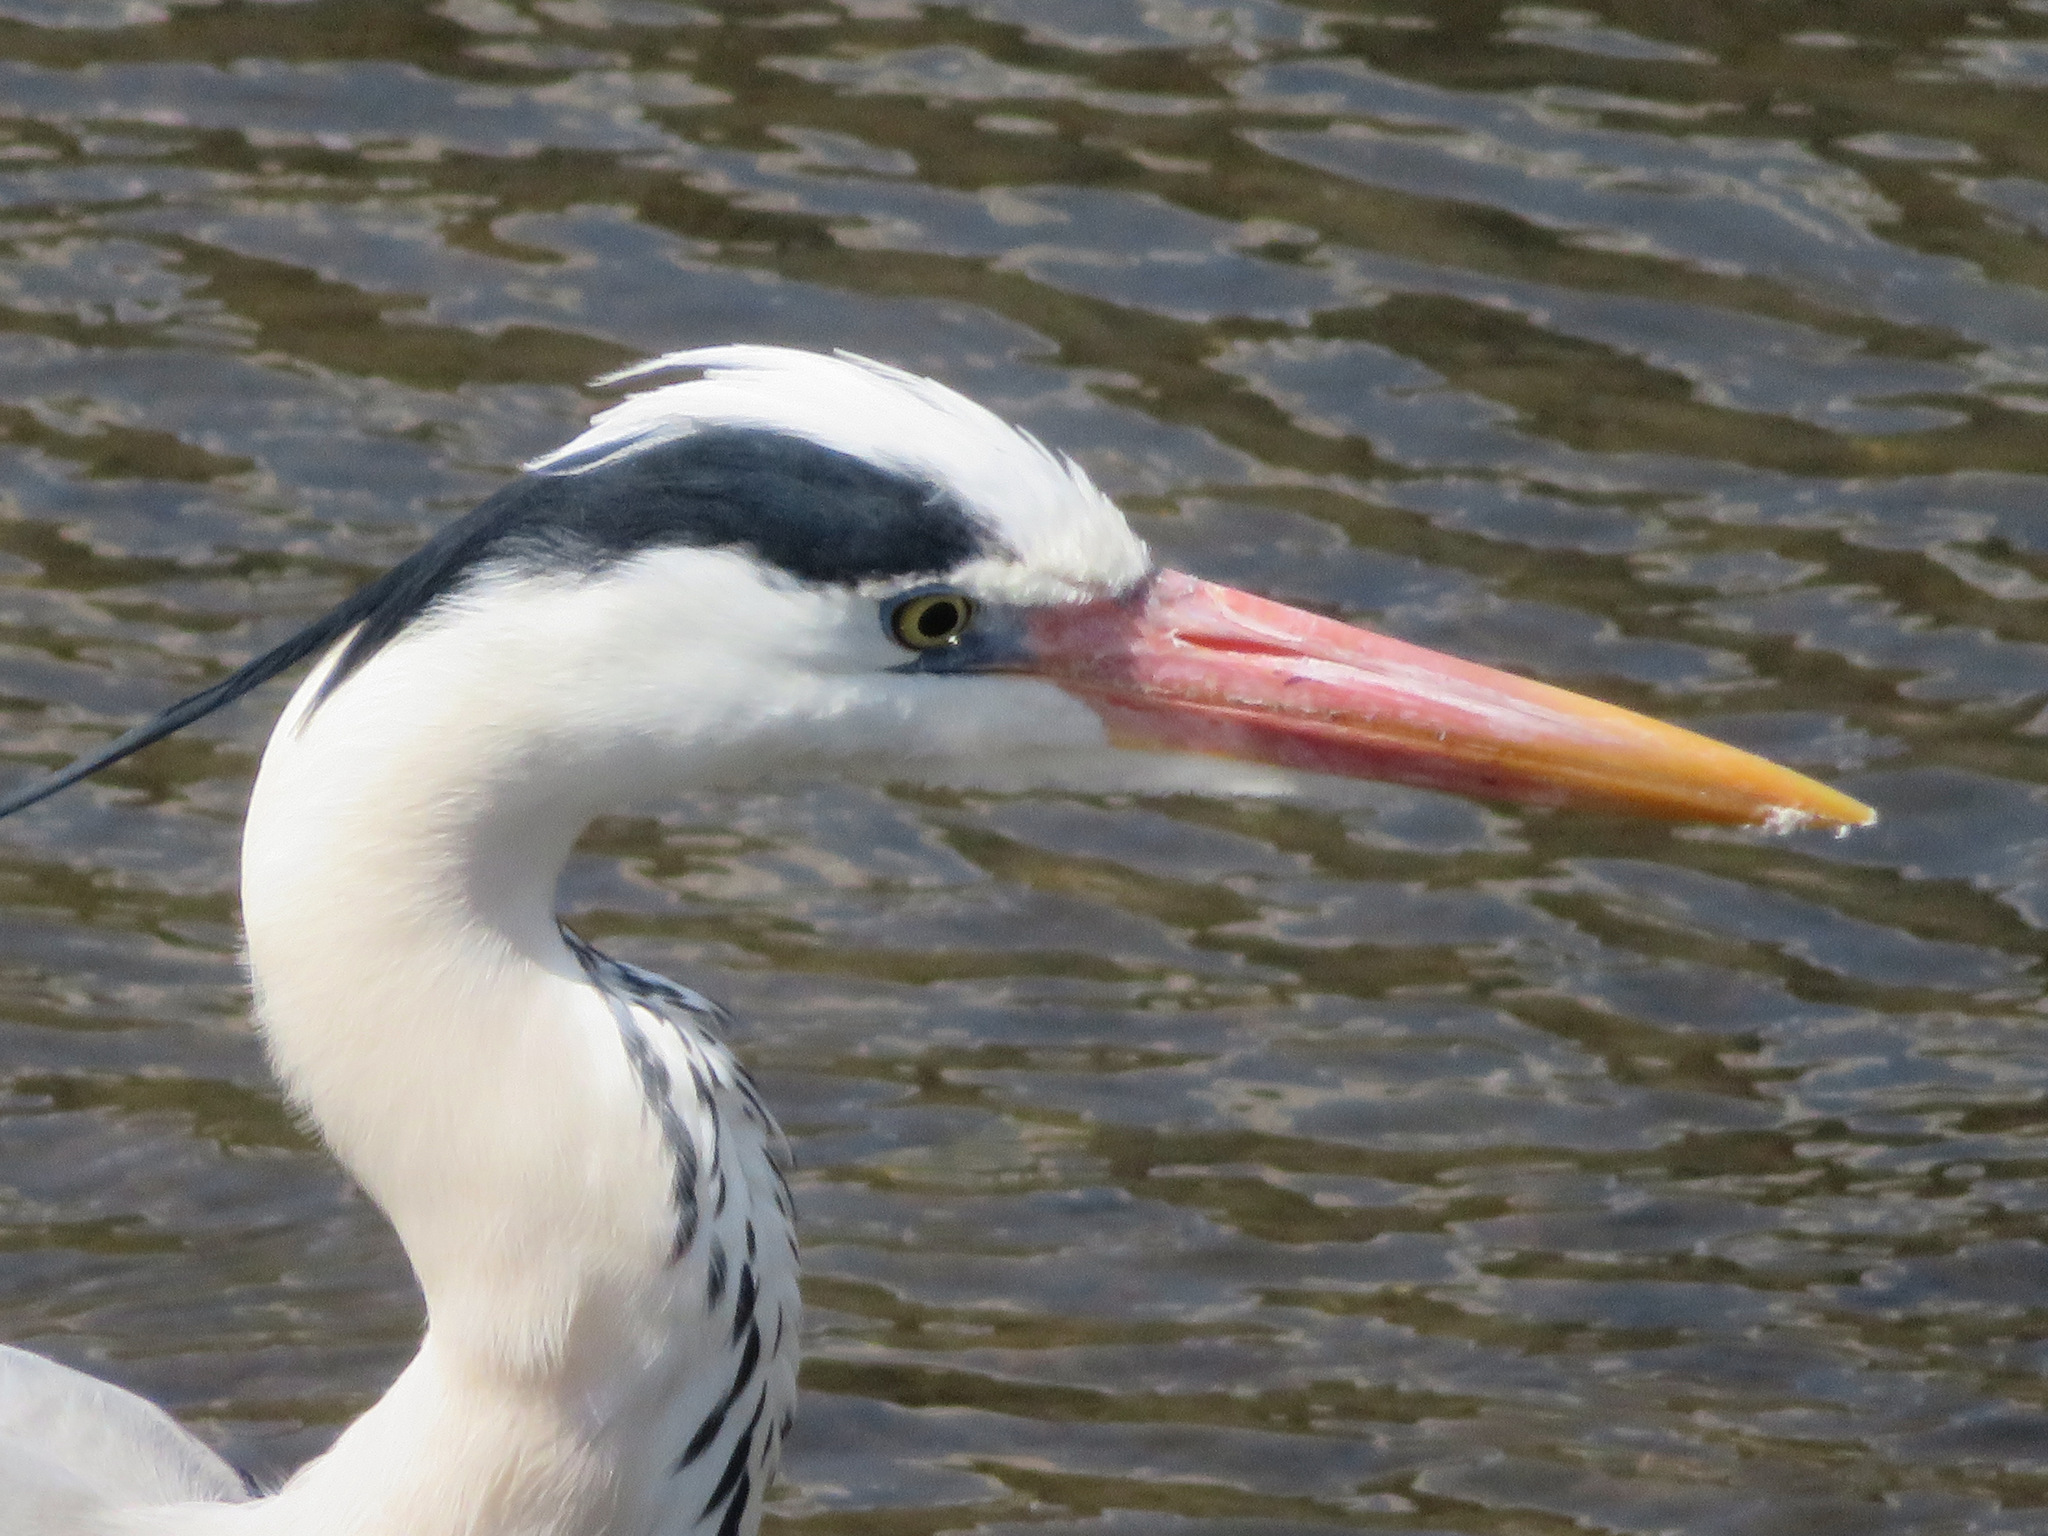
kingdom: Animalia
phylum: Chordata
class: Aves
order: Pelecaniformes
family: Ardeidae
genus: Ardea
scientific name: Ardea cinerea
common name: Grey heron
